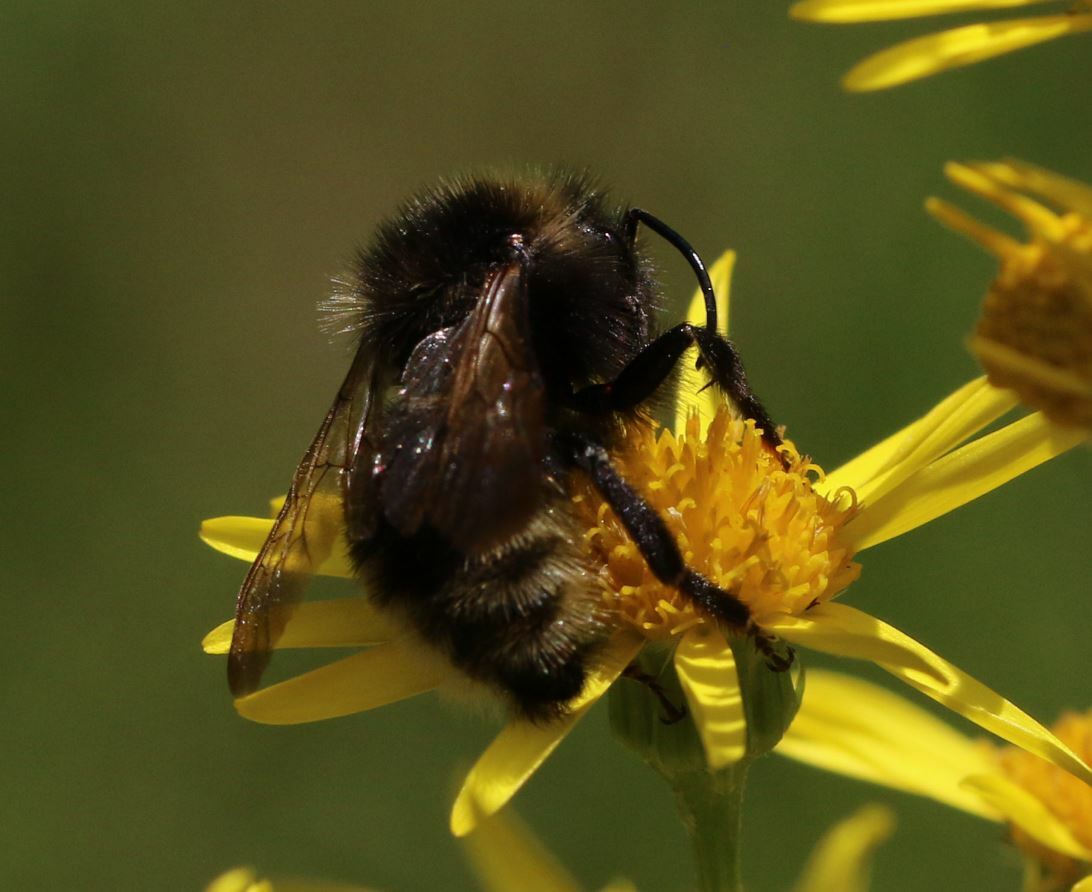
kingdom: Animalia
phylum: Arthropoda
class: Insecta
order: Hymenoptera
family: Apidae
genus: Bombus
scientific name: Bombus campestris
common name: Field cuckoo-bee
